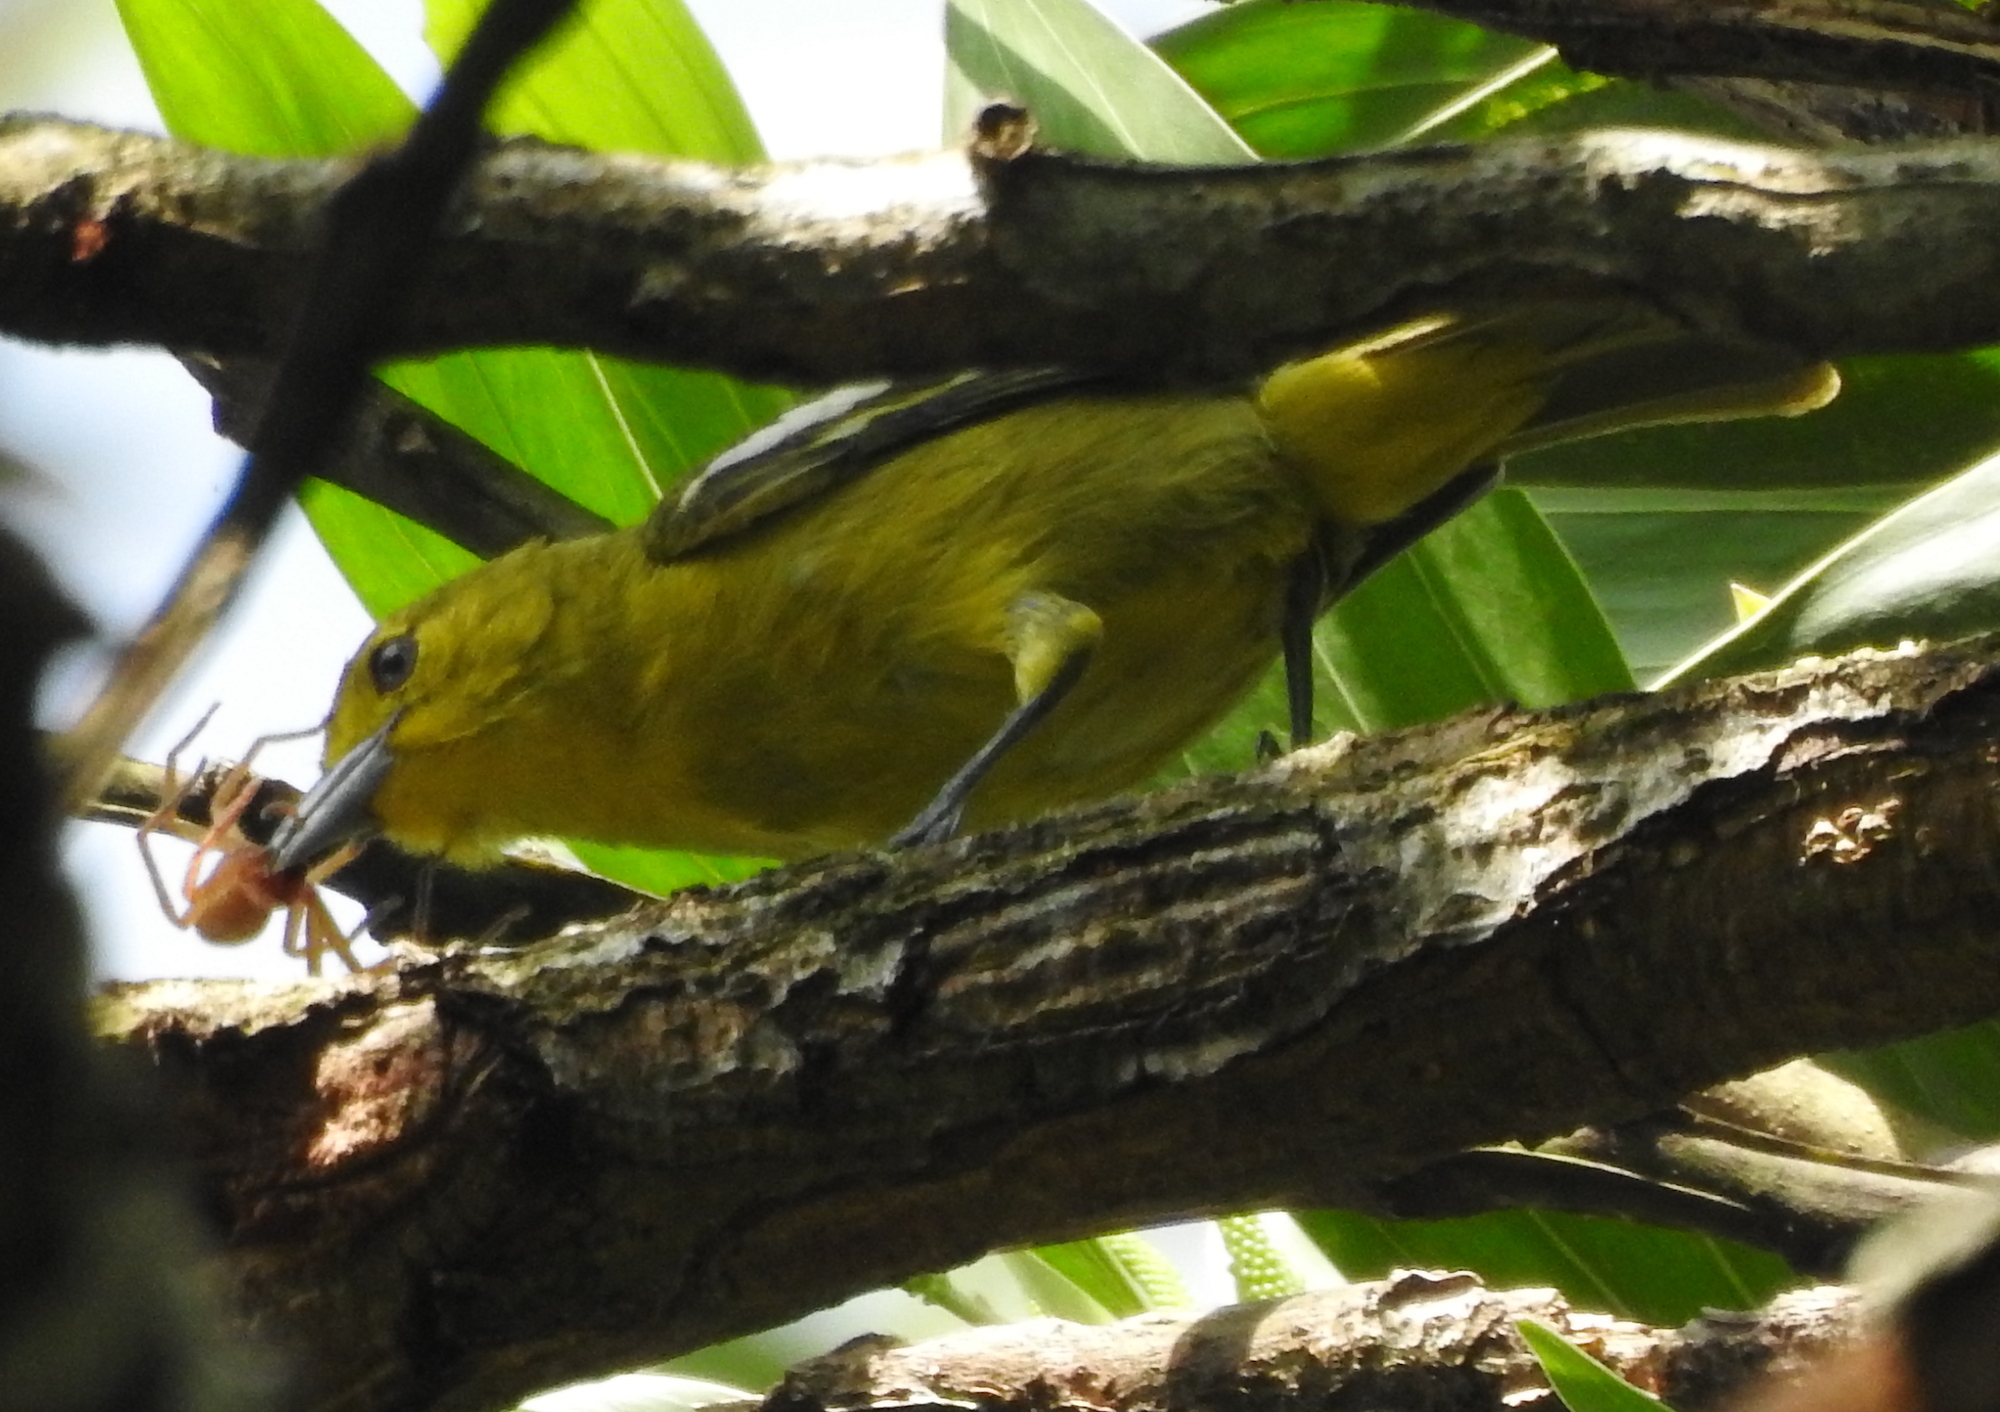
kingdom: Animalia
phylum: Chordata
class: Aves
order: Passeriformes
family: Aegithinidae
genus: Aegithina
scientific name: Aegithina tiphia
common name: Common iora
